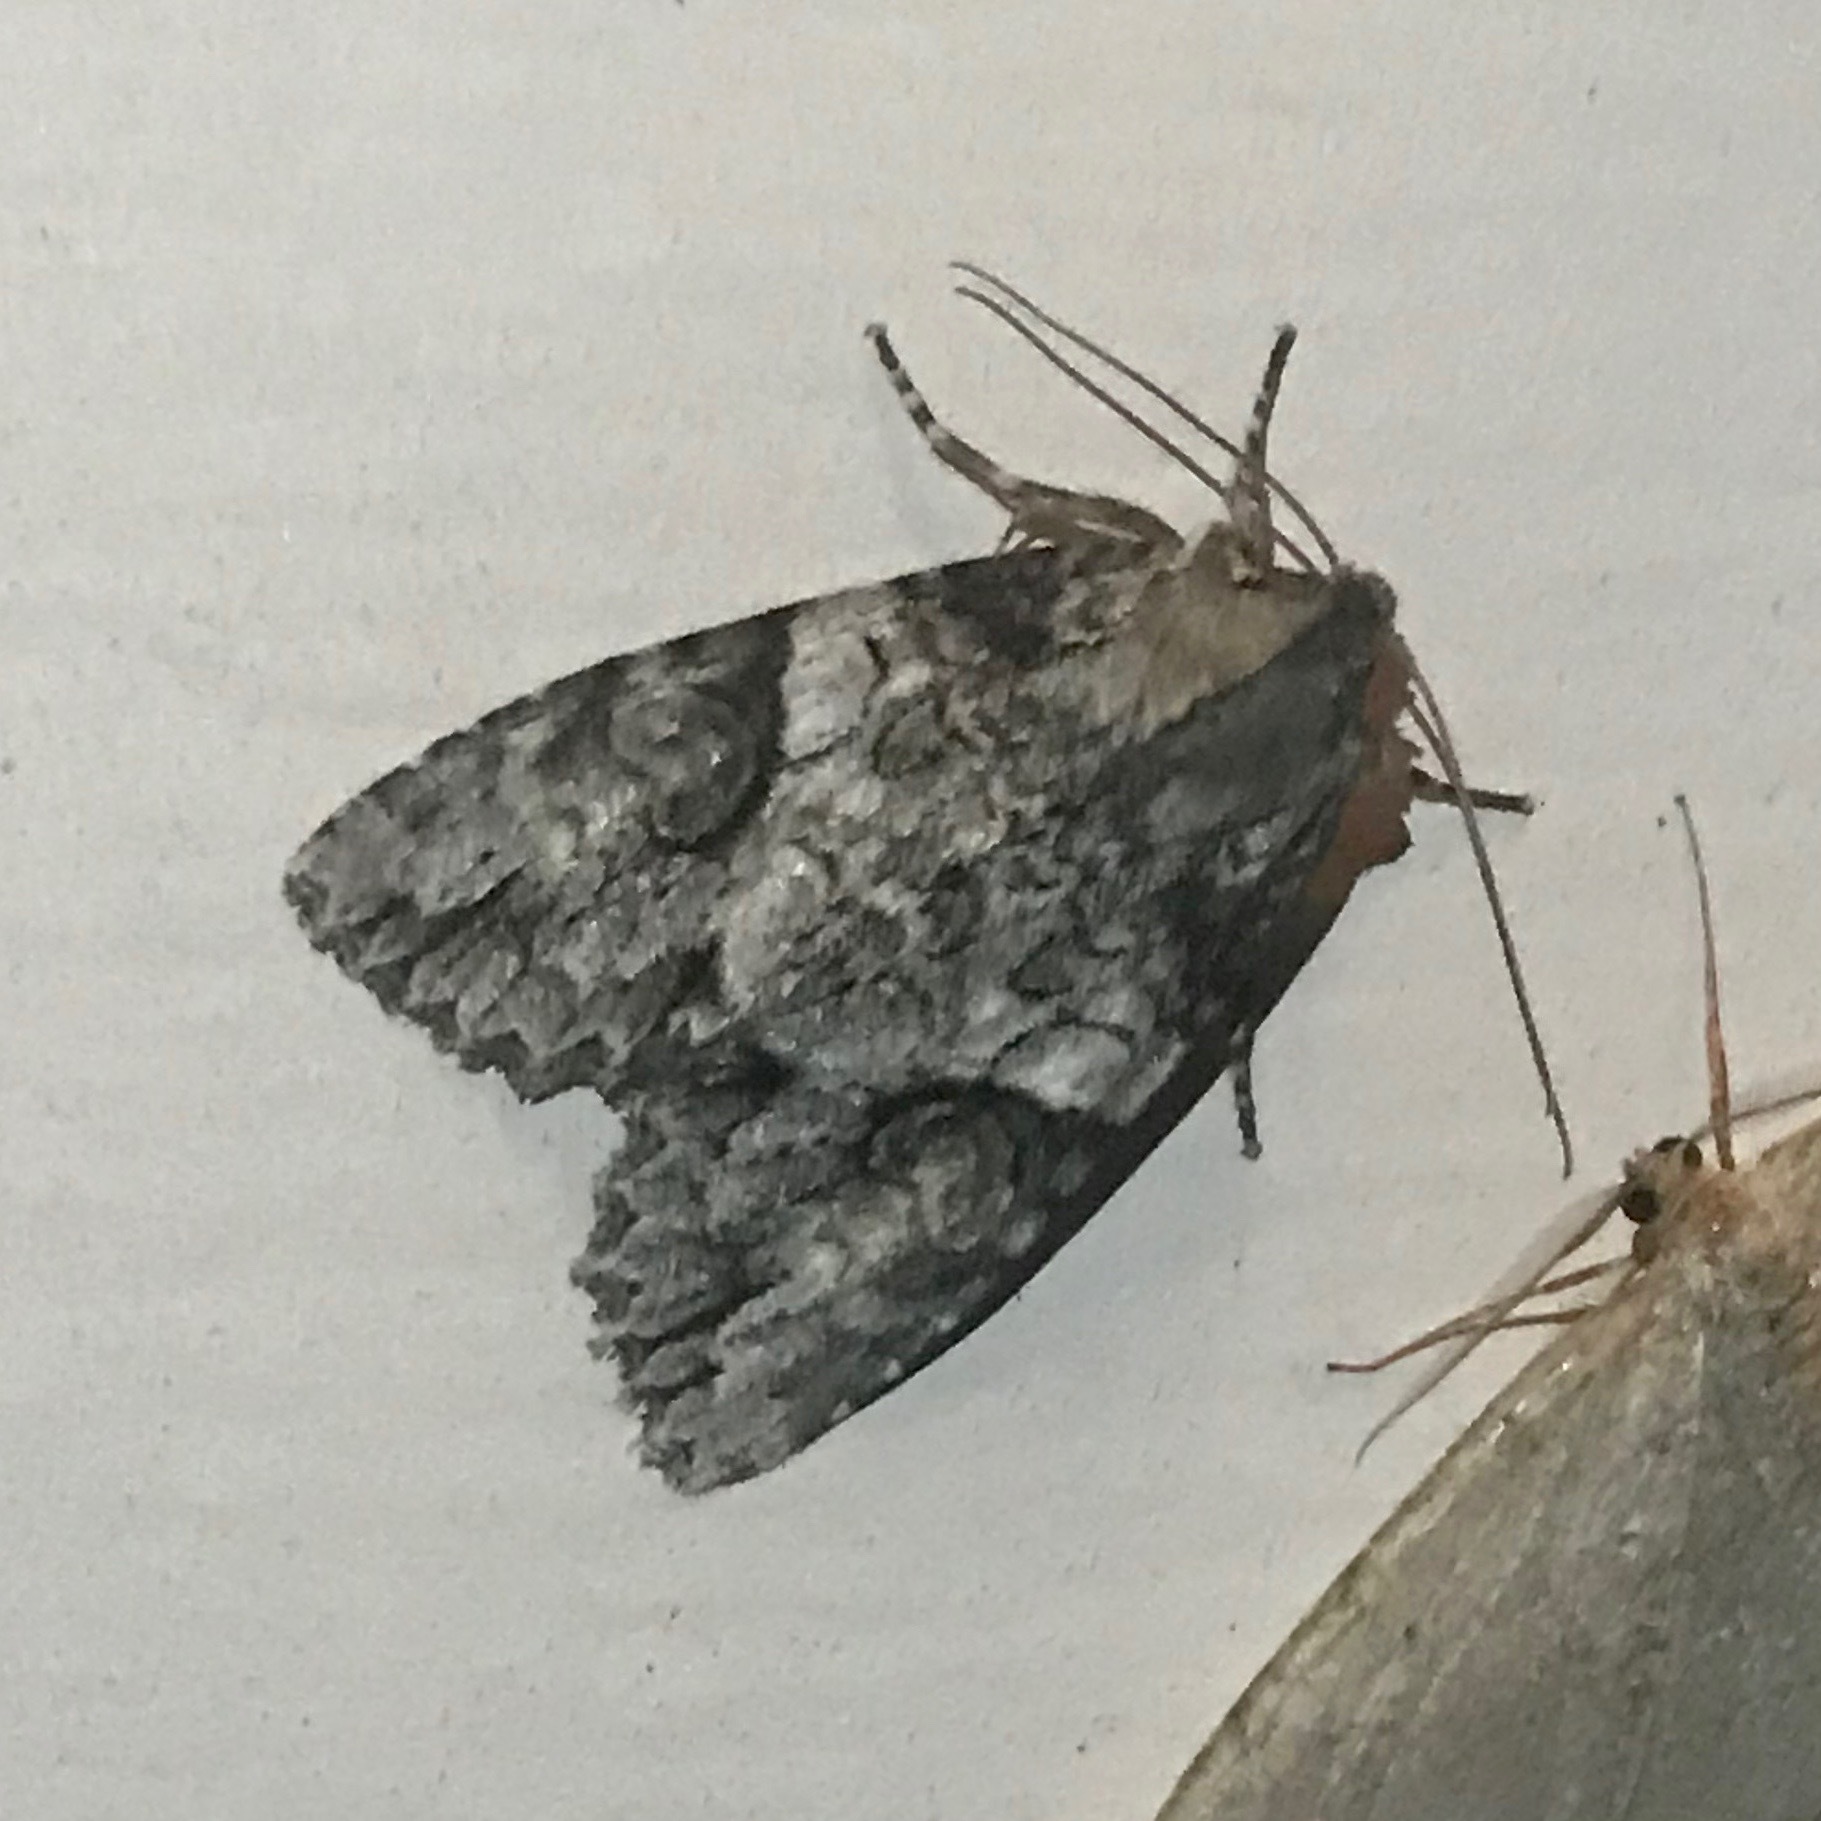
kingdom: Animalia
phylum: Arthropoda
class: Insecta
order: Lepidoptera
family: Noctuidae
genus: Achatia
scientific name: Achatia latex
